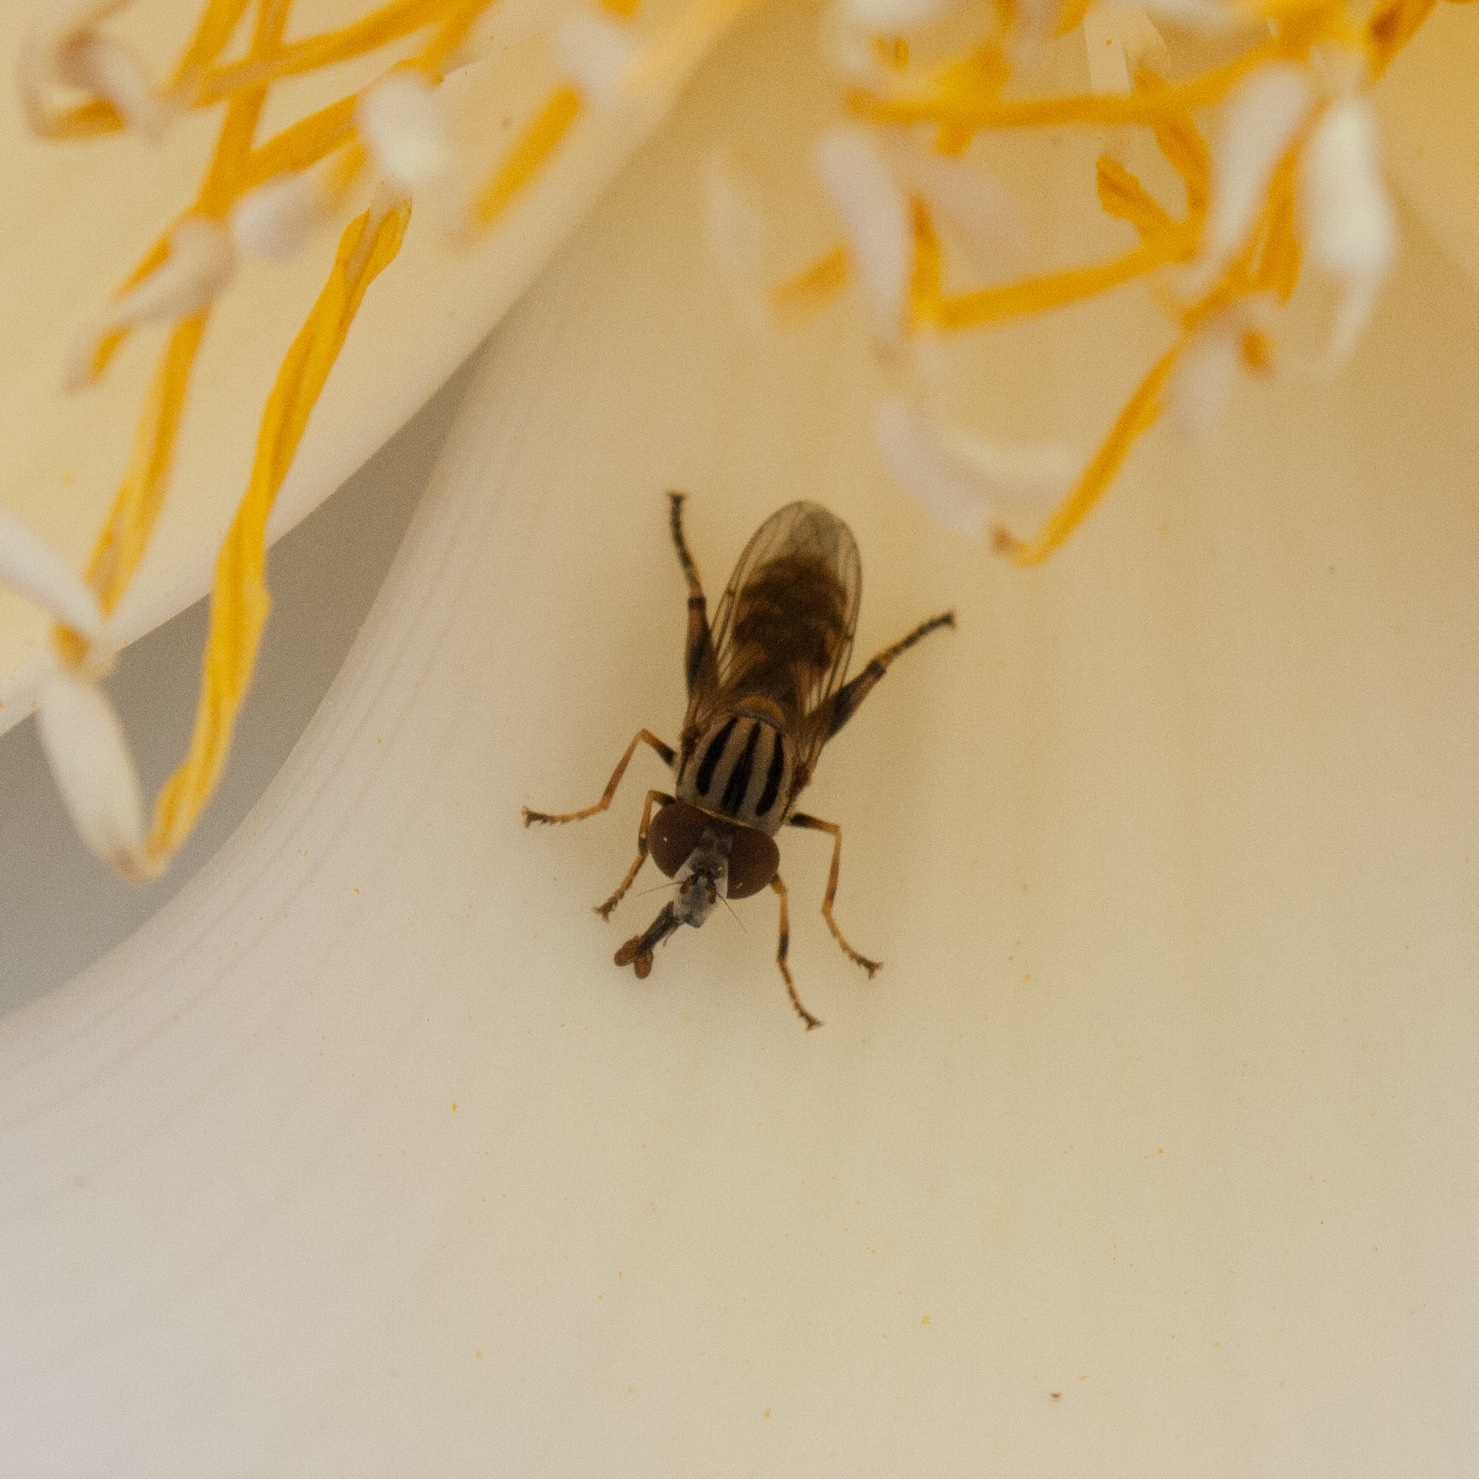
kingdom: Animalia
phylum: Arthropoda
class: Insecta
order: Diptera
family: Syrphidae
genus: Anasimyia
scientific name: Anasimyia
